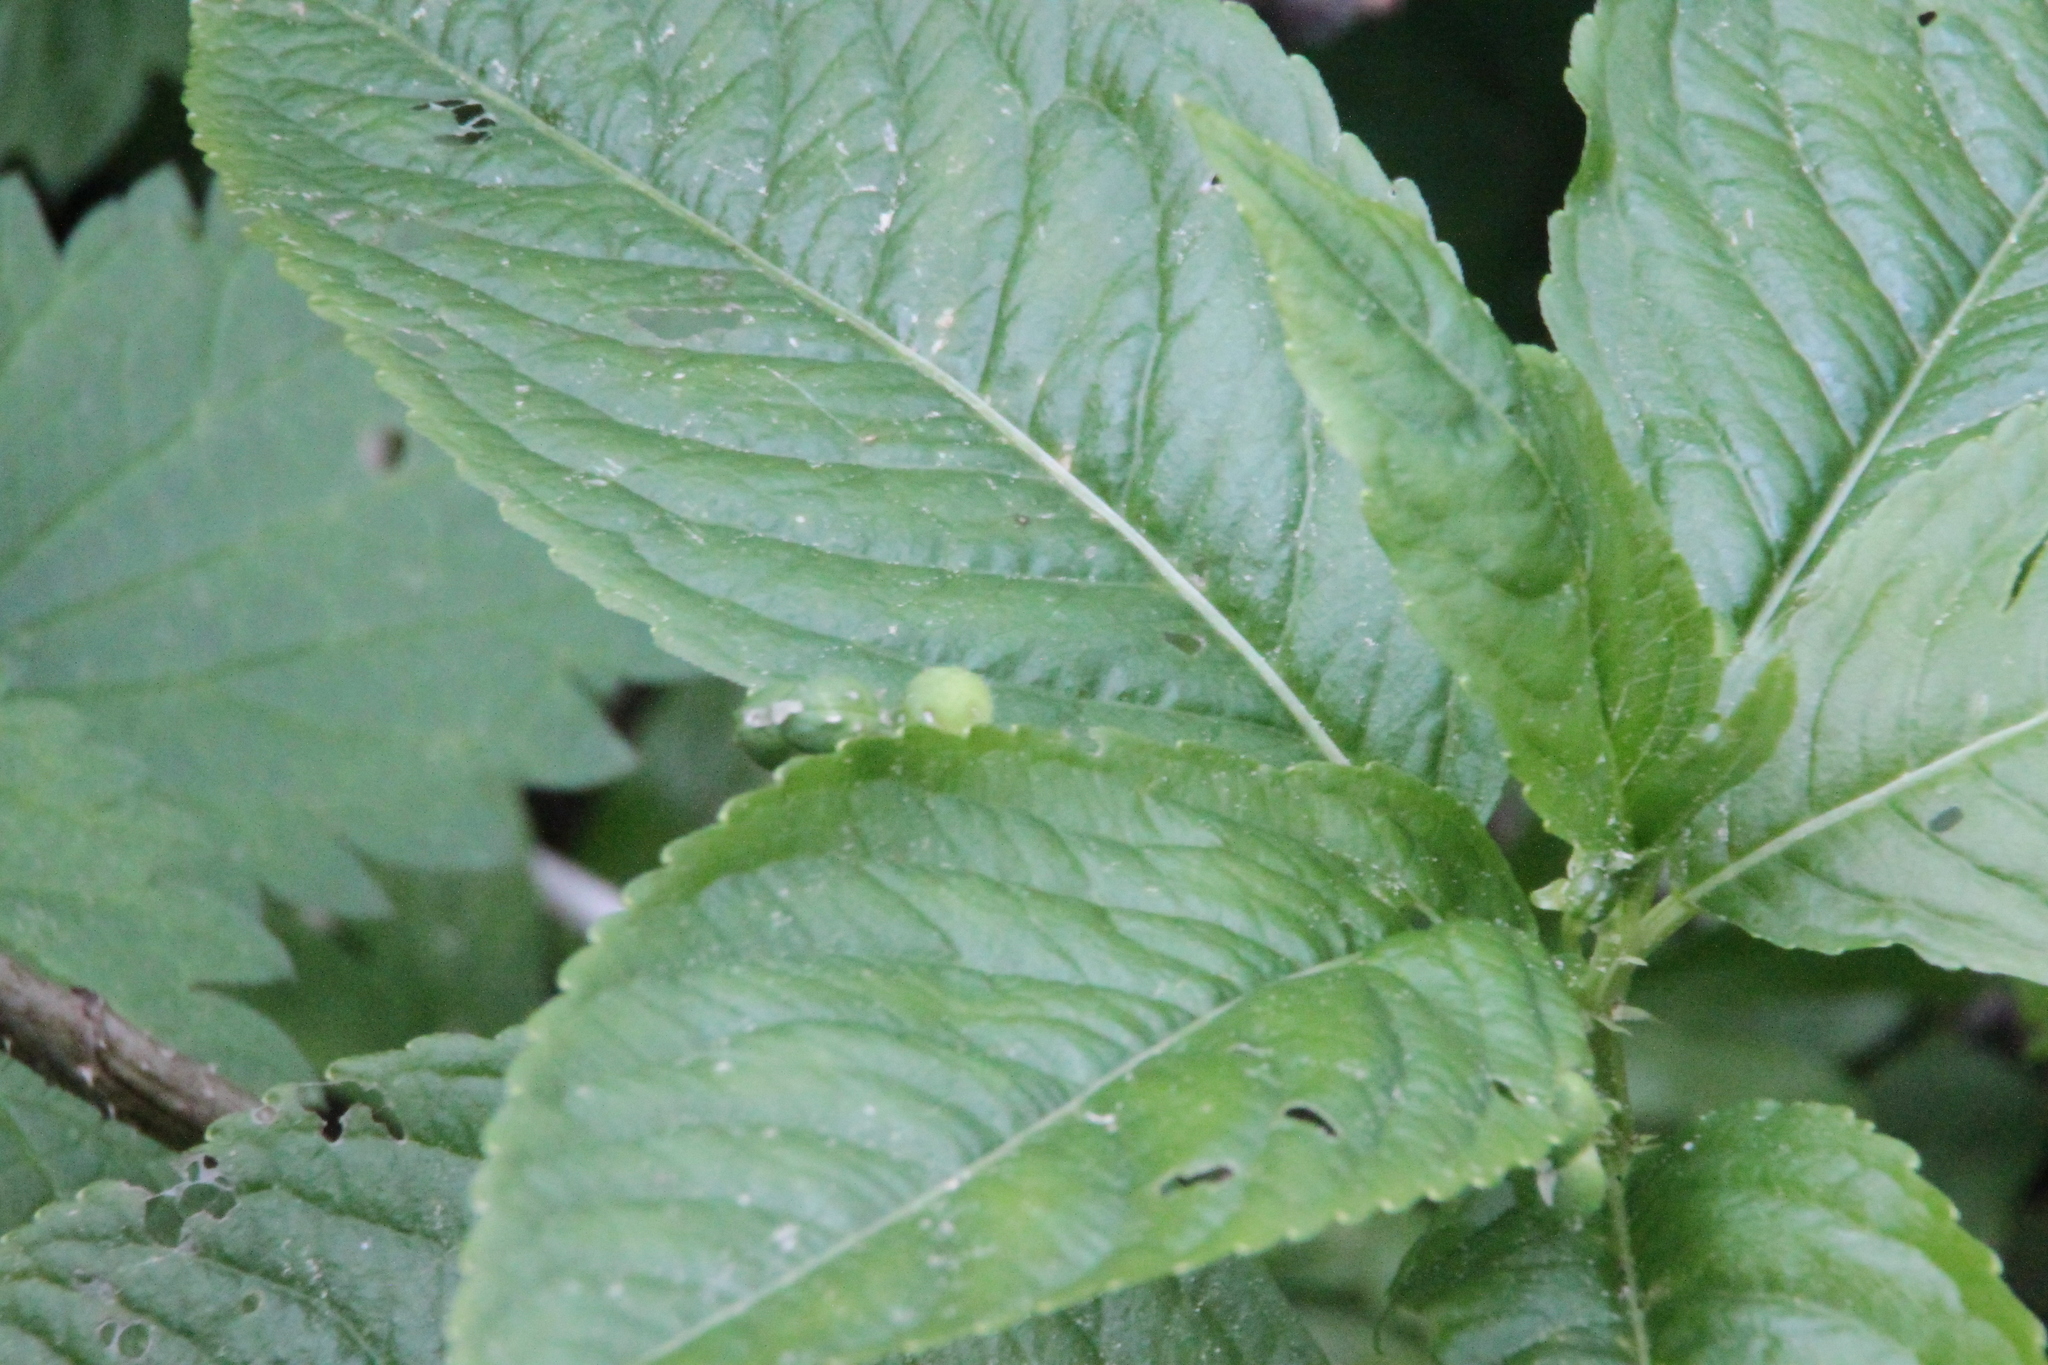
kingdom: Plantae
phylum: Tracheophyta
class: Magnoliopsida
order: Malpighiales
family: Euphorbiaceae
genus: Mercurialis
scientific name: Mercurialis perennis
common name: Dog mercury
